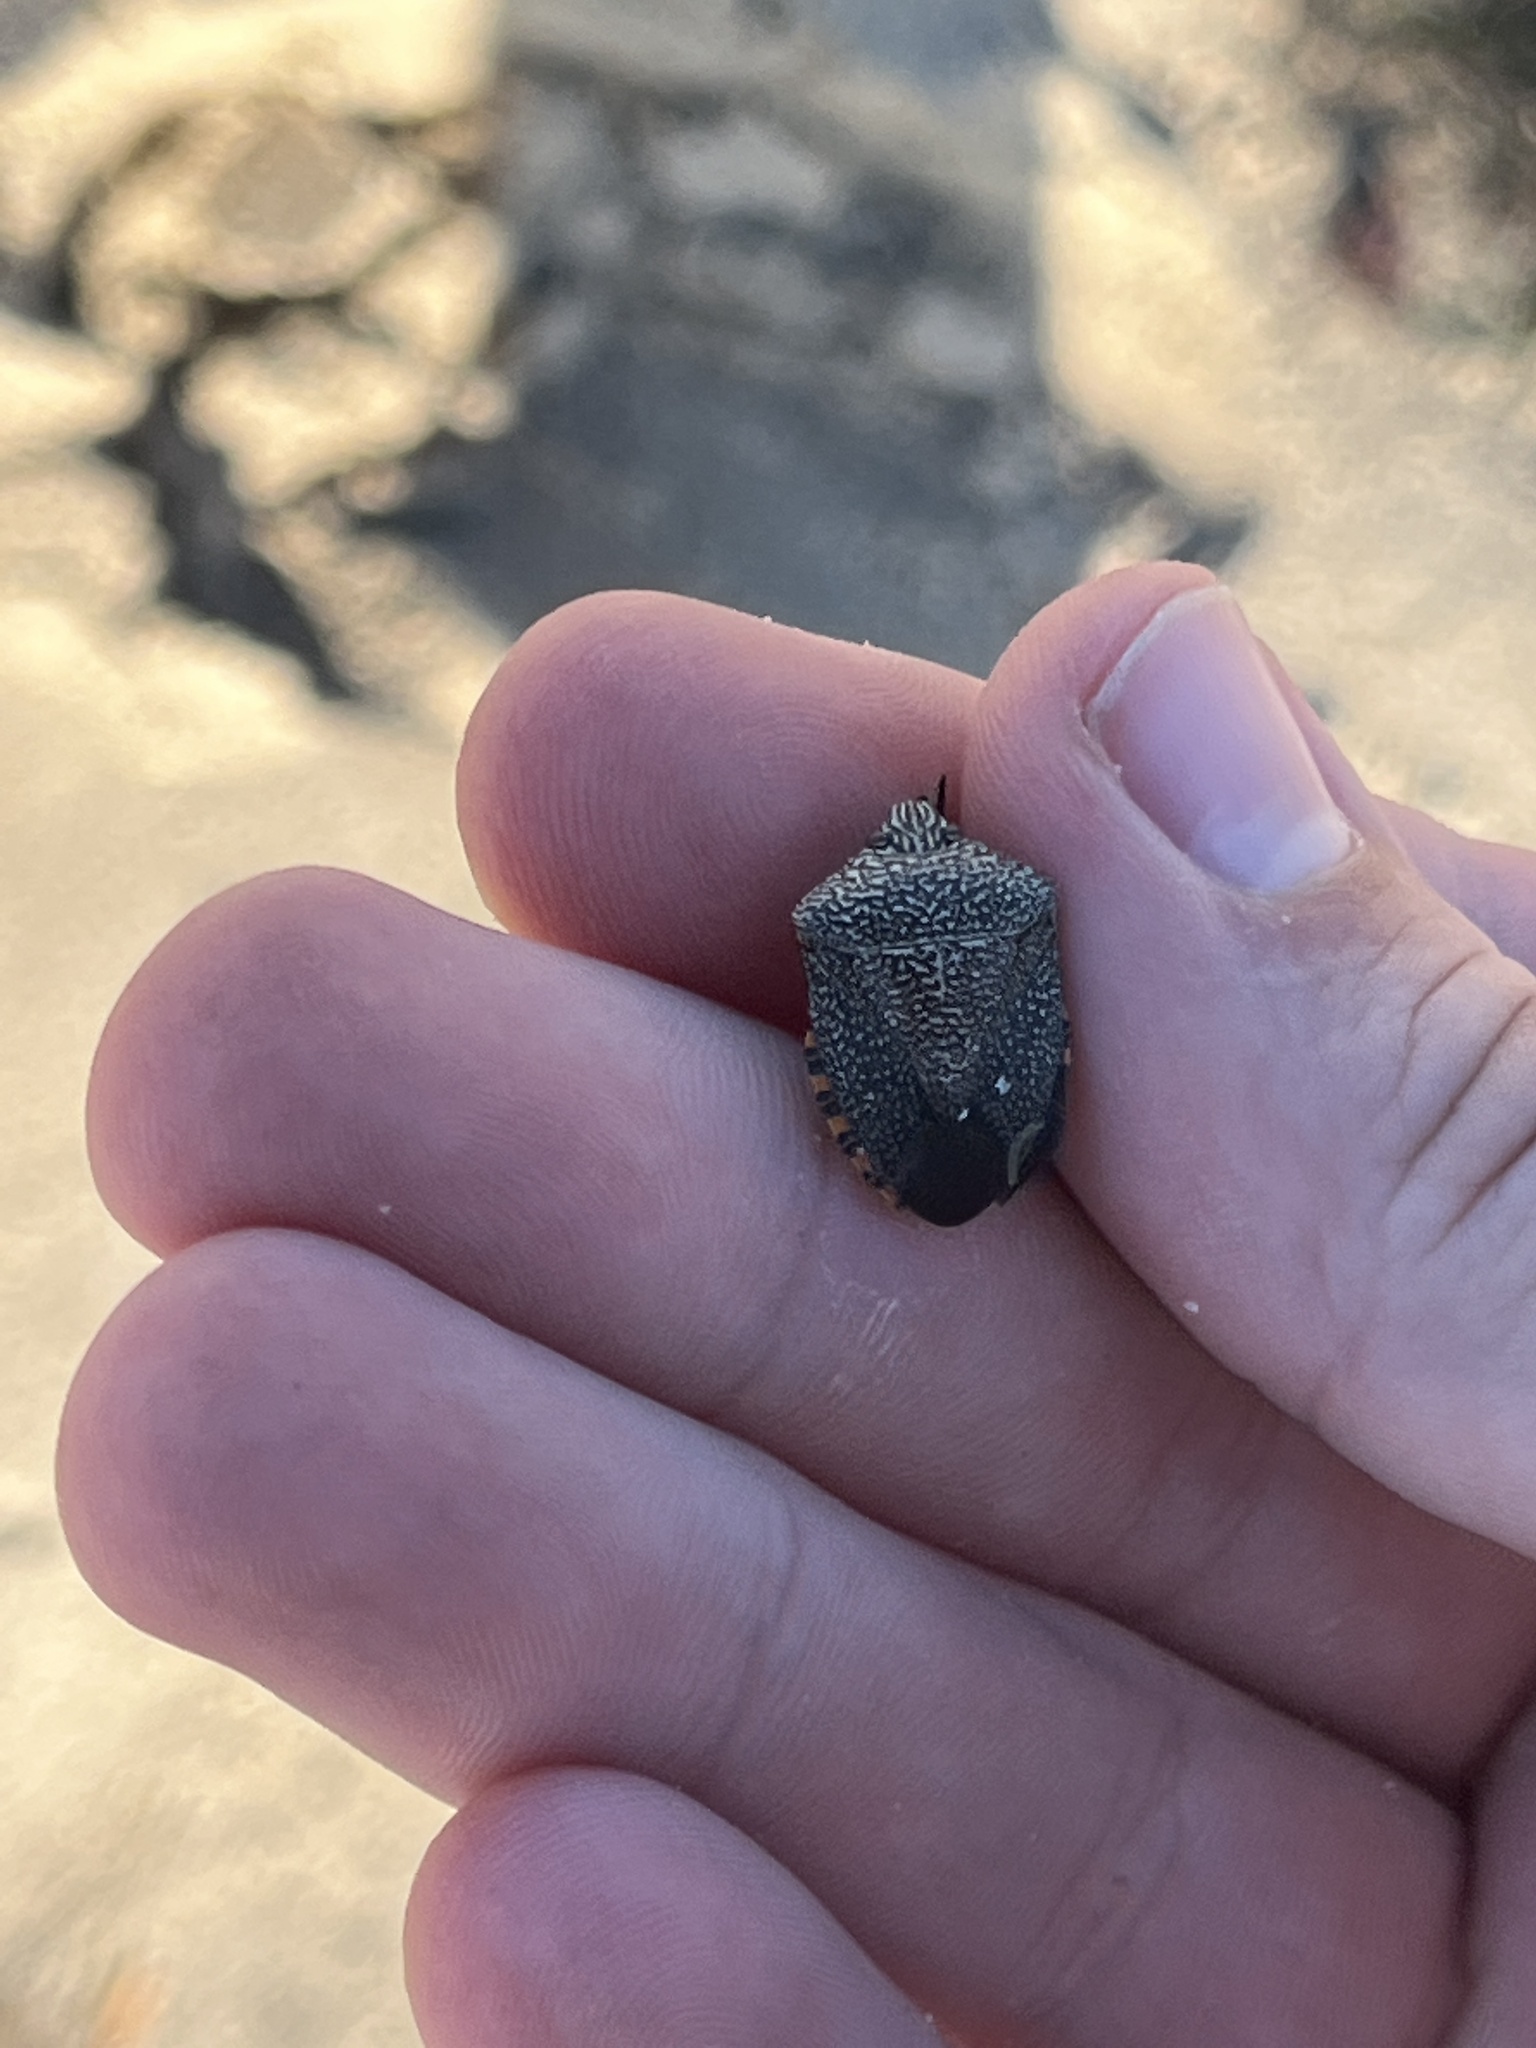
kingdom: Animalia
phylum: Arthropoda
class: Insecta
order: Hemiptera
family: Pentatomidae
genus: Pellaea
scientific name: Pellaea stictica
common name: Stink bug
